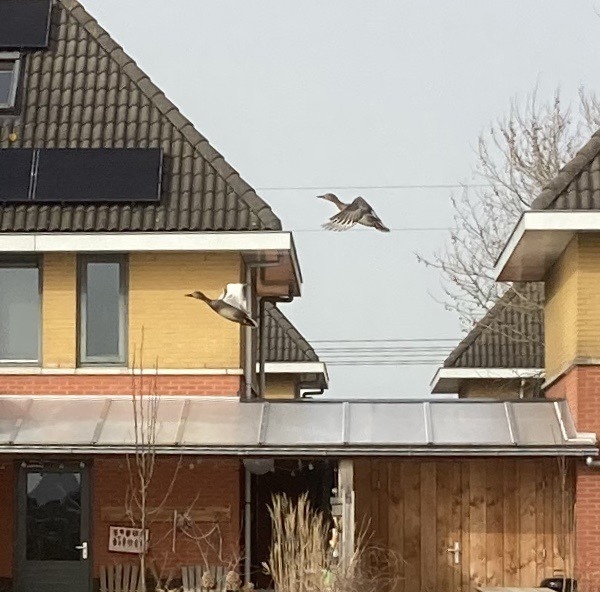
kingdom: Animalia
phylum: Chordata
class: Aves
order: Anseriformes
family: Anatidae
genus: Mareca
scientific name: Mareca strepera
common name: Gadwall
